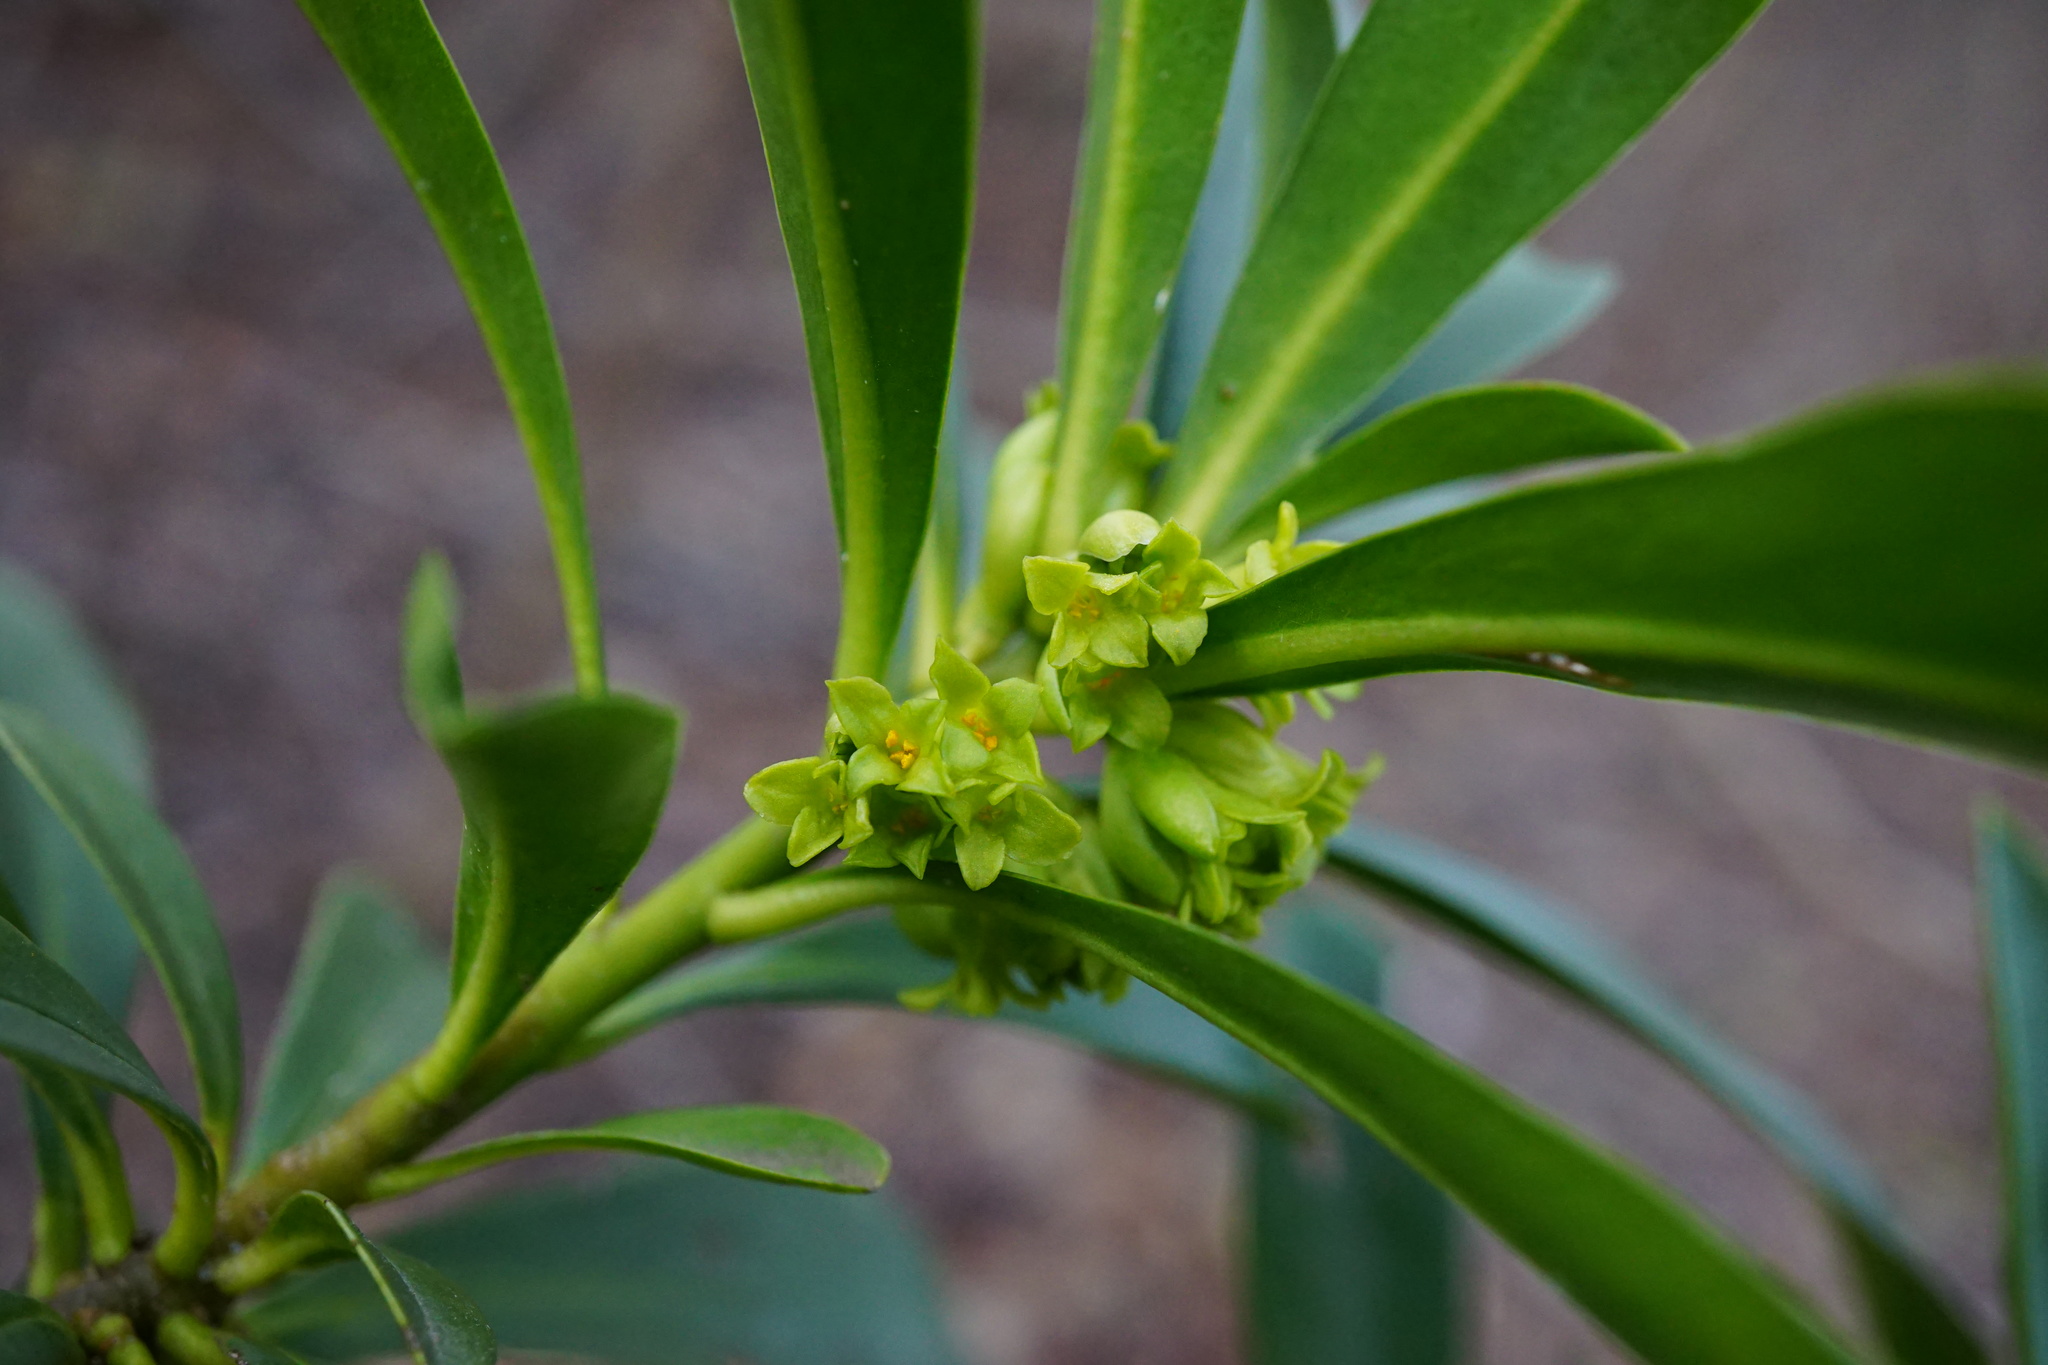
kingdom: Plantae
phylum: Tracheophyta
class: Magnoliopsida
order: Malvales
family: Thymelaeaceae
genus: Daphne
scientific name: Daphne laureola
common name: Spurge-laurel
